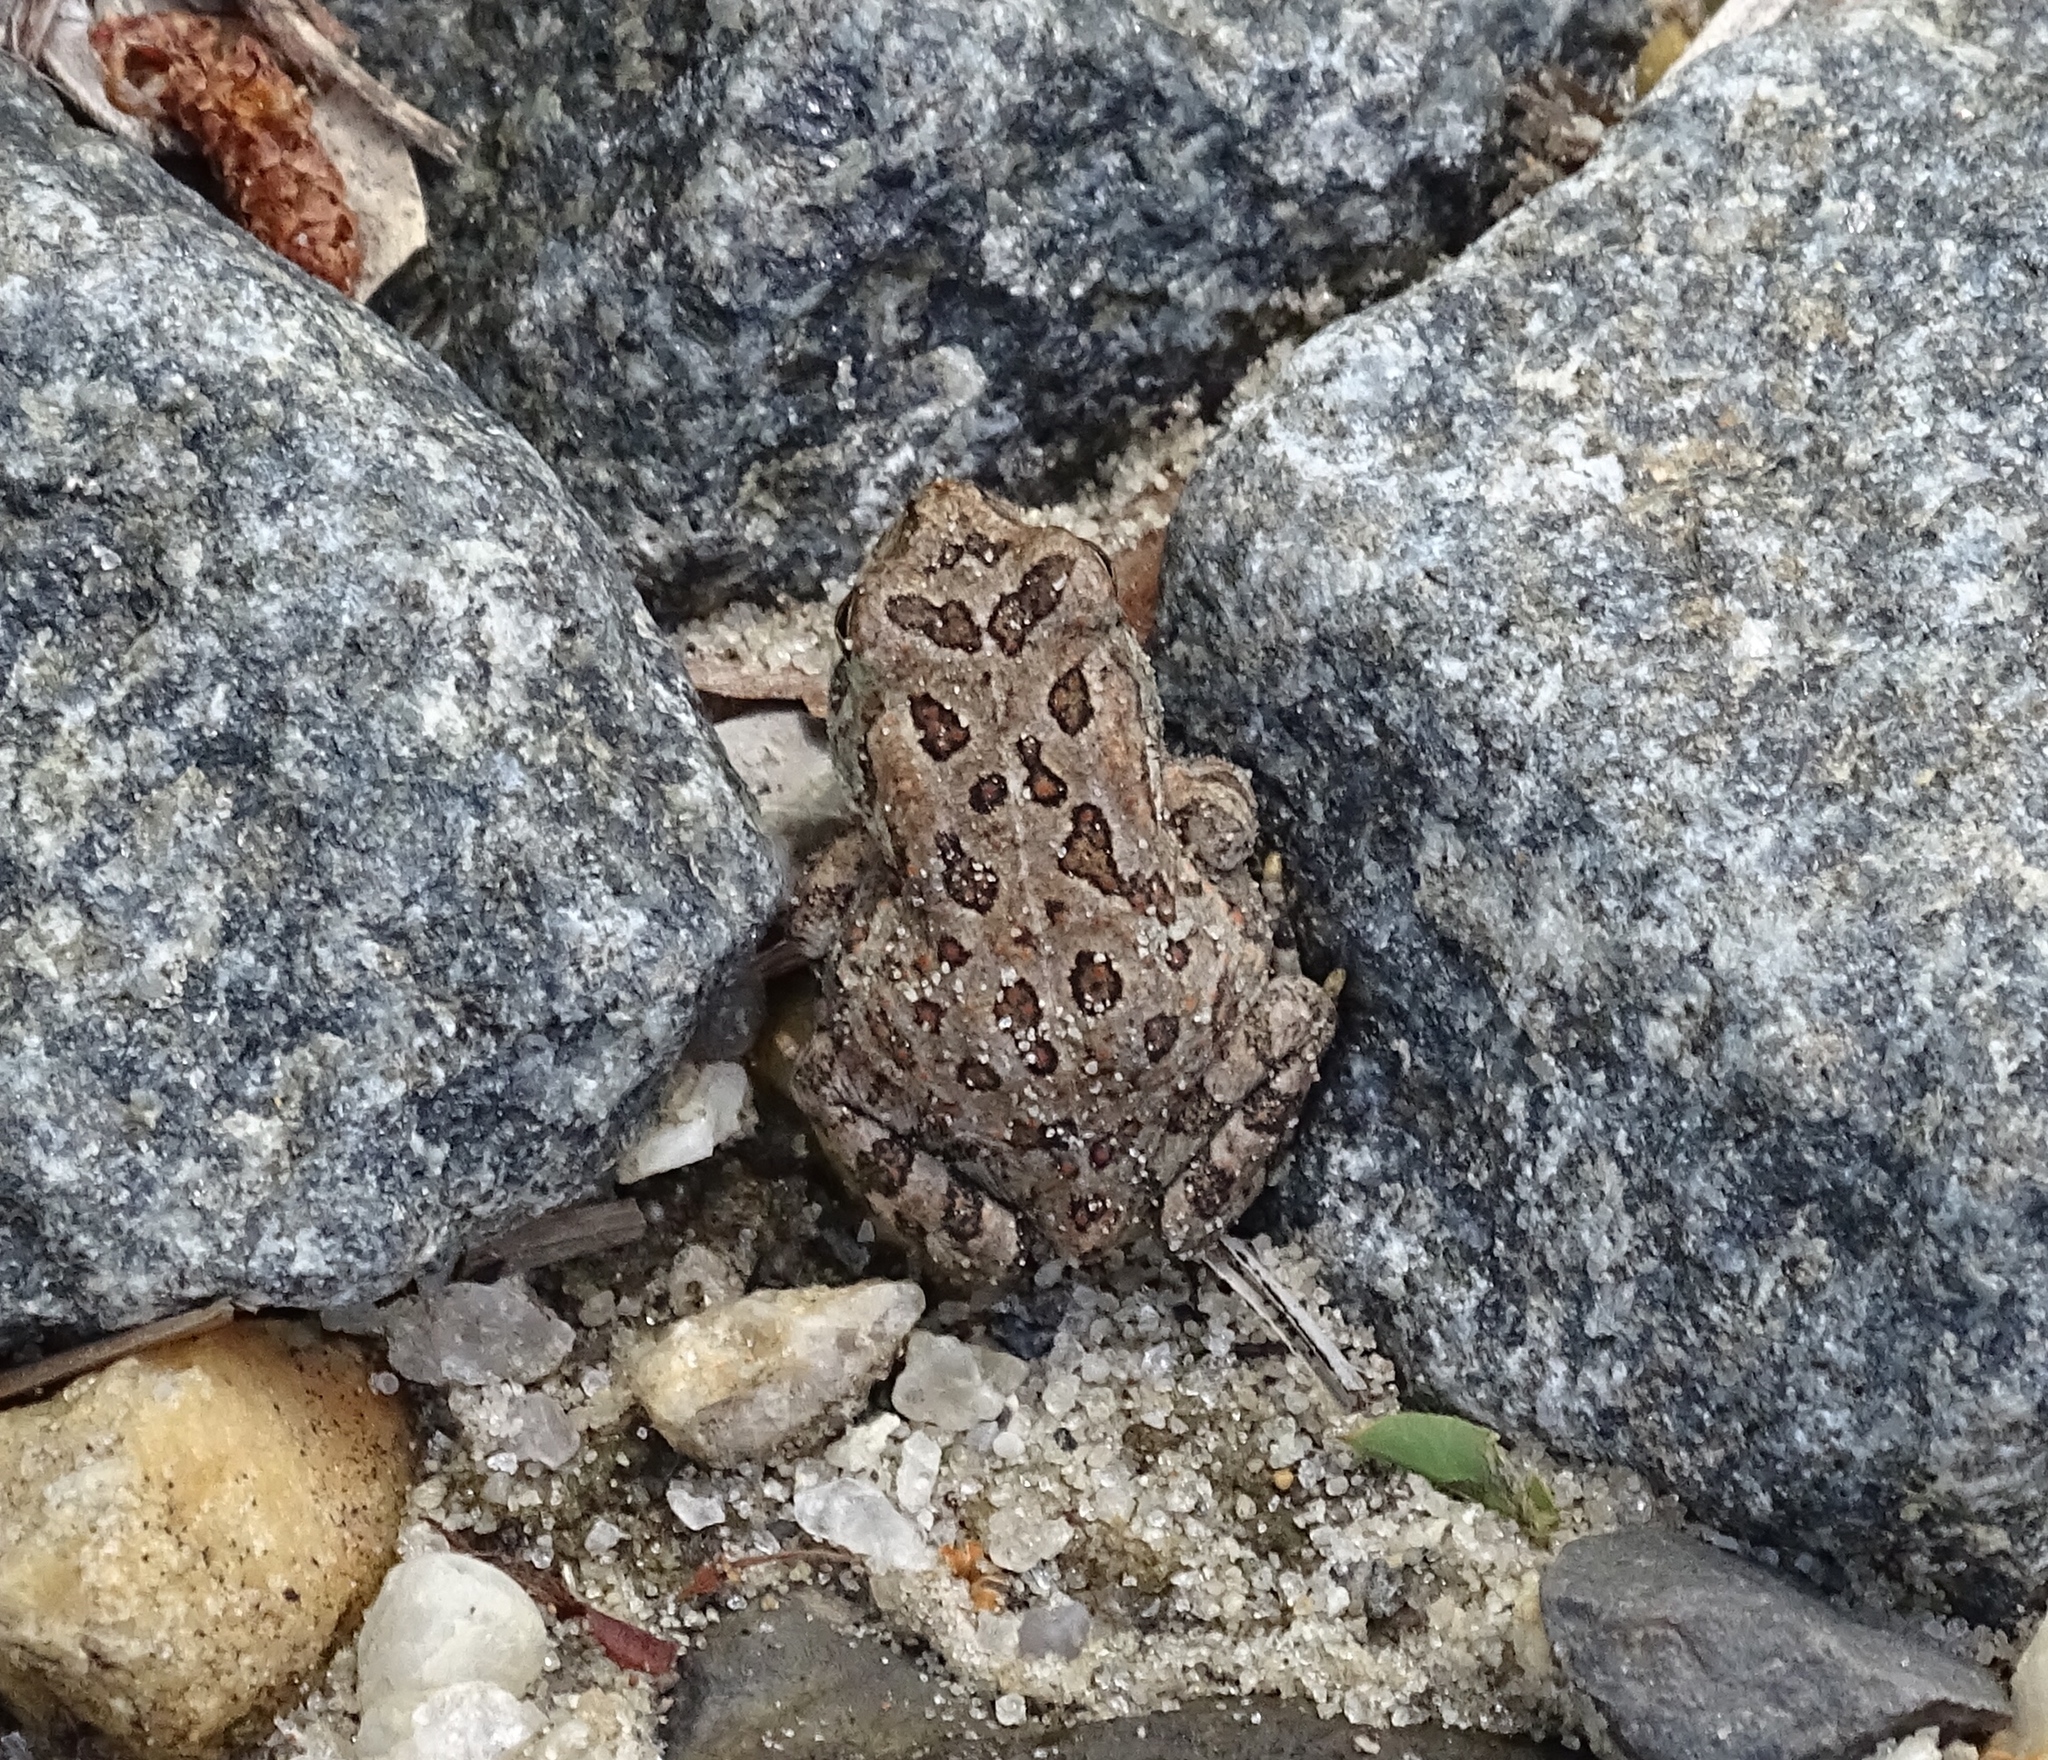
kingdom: Animalia
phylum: Chordata
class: Amphibia
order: Anura
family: Bufonidae
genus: Anaxyrus
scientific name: Anaxyrus fowleri
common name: Fowler's toad
